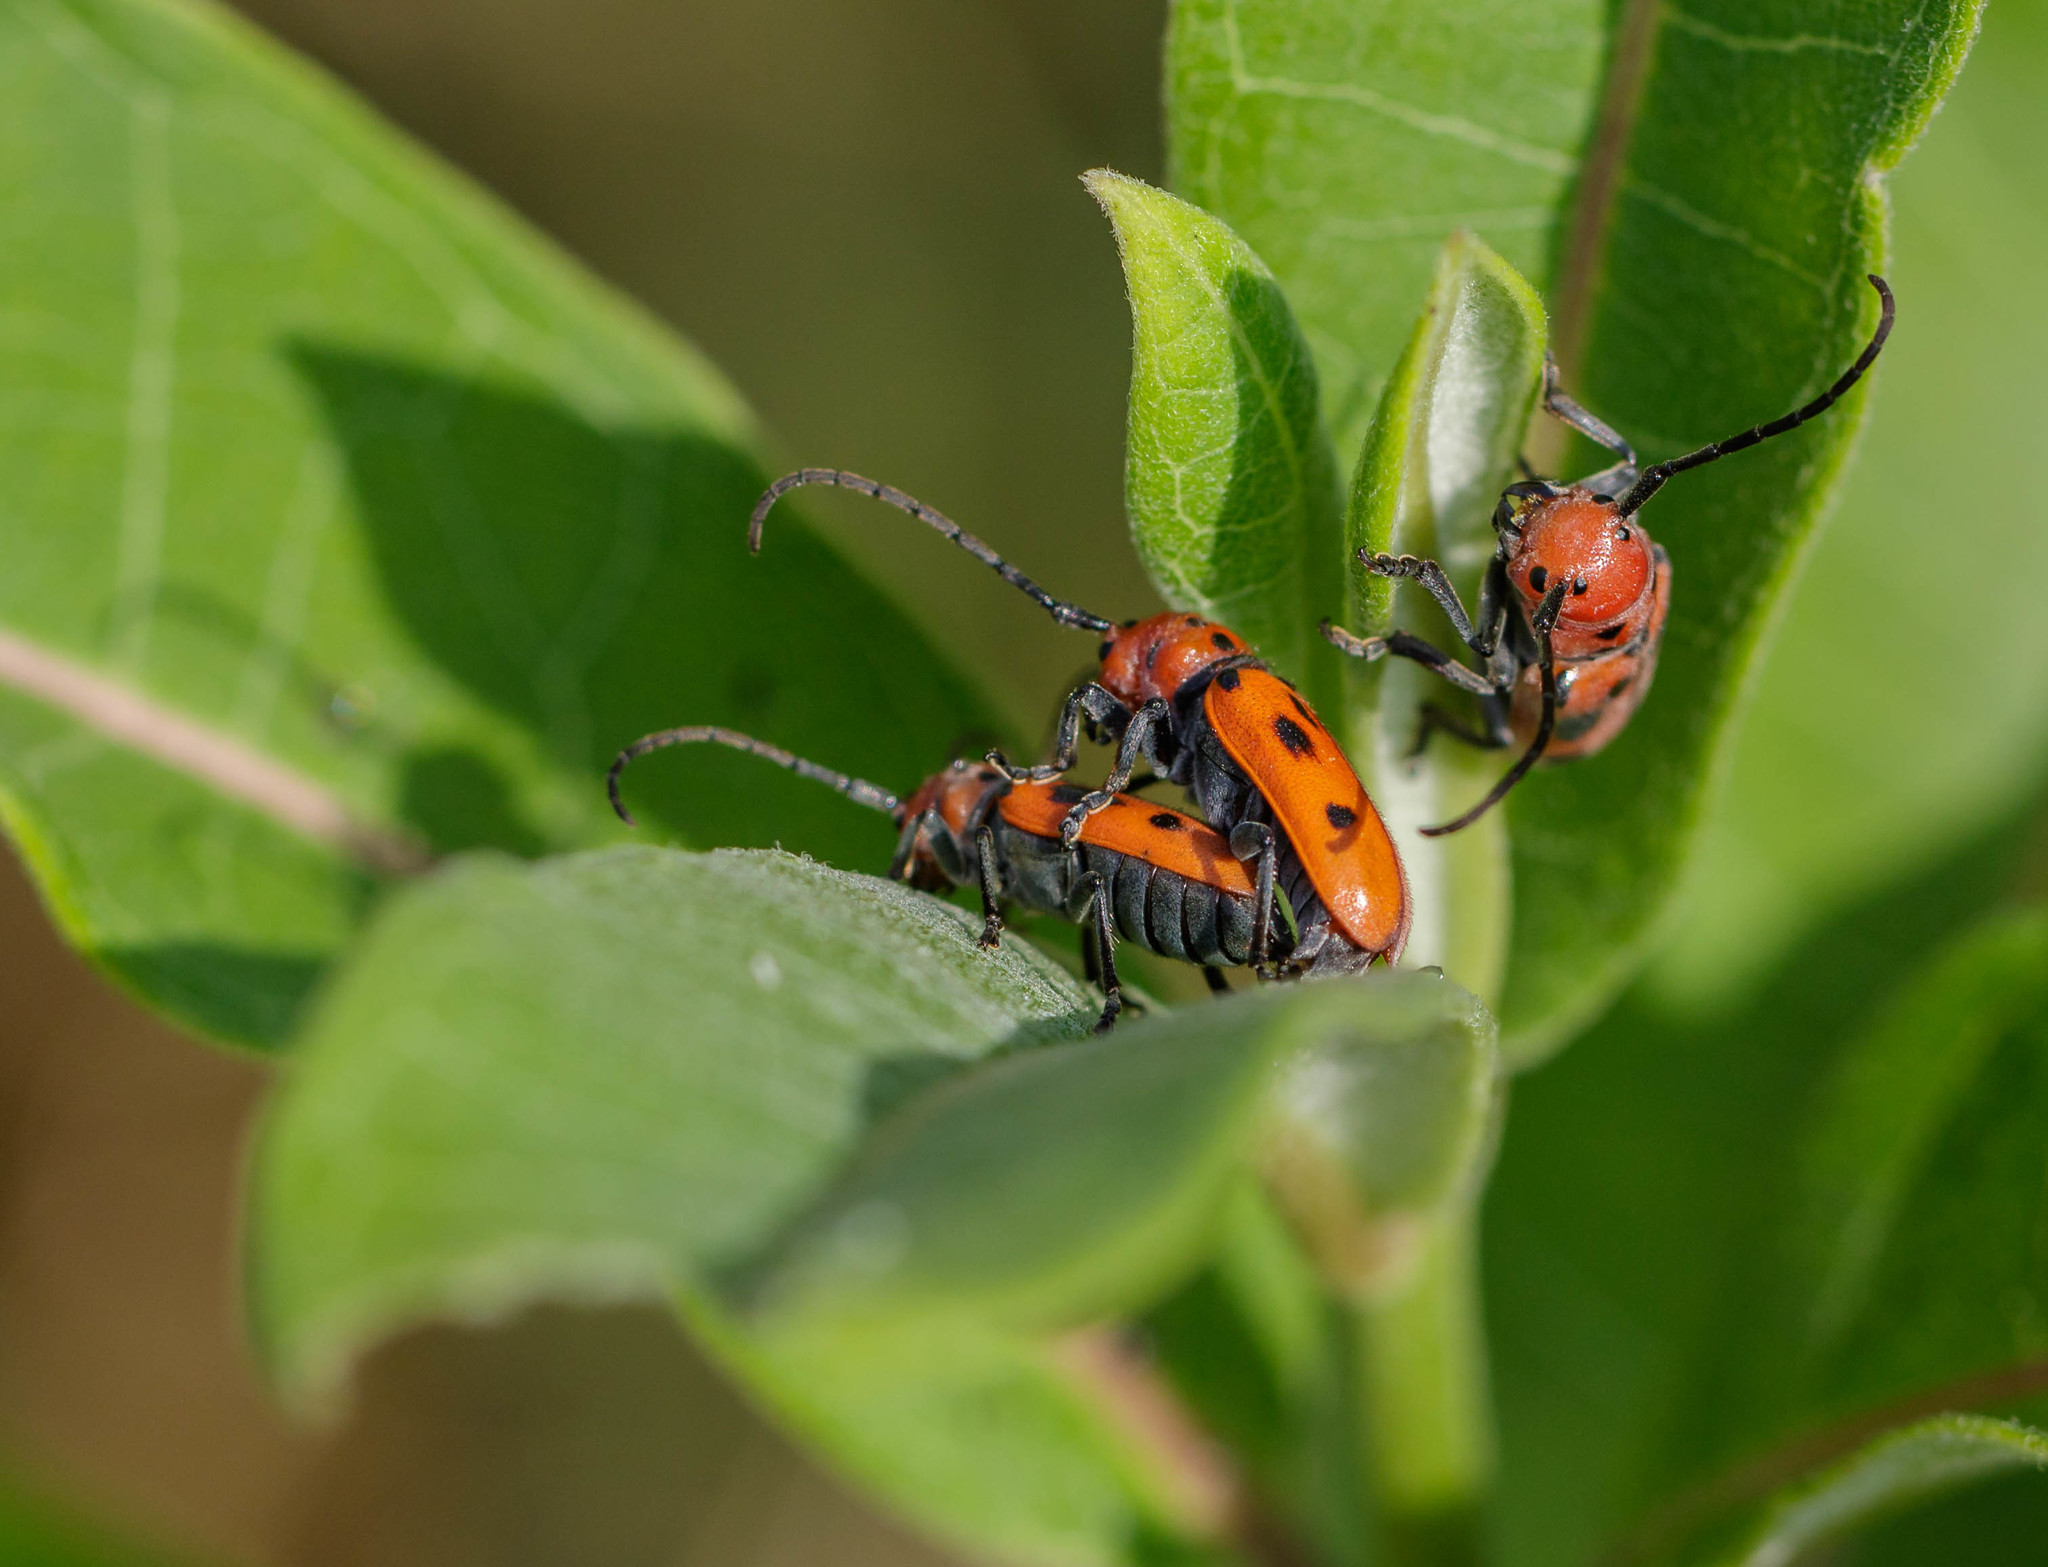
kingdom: Animalia
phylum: Arthropoda
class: Insecta
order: Coleoptera
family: Cerambycidae
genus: Tetraopes
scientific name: Tetraopes tetrophthalmus
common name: Red milkweed beetle
